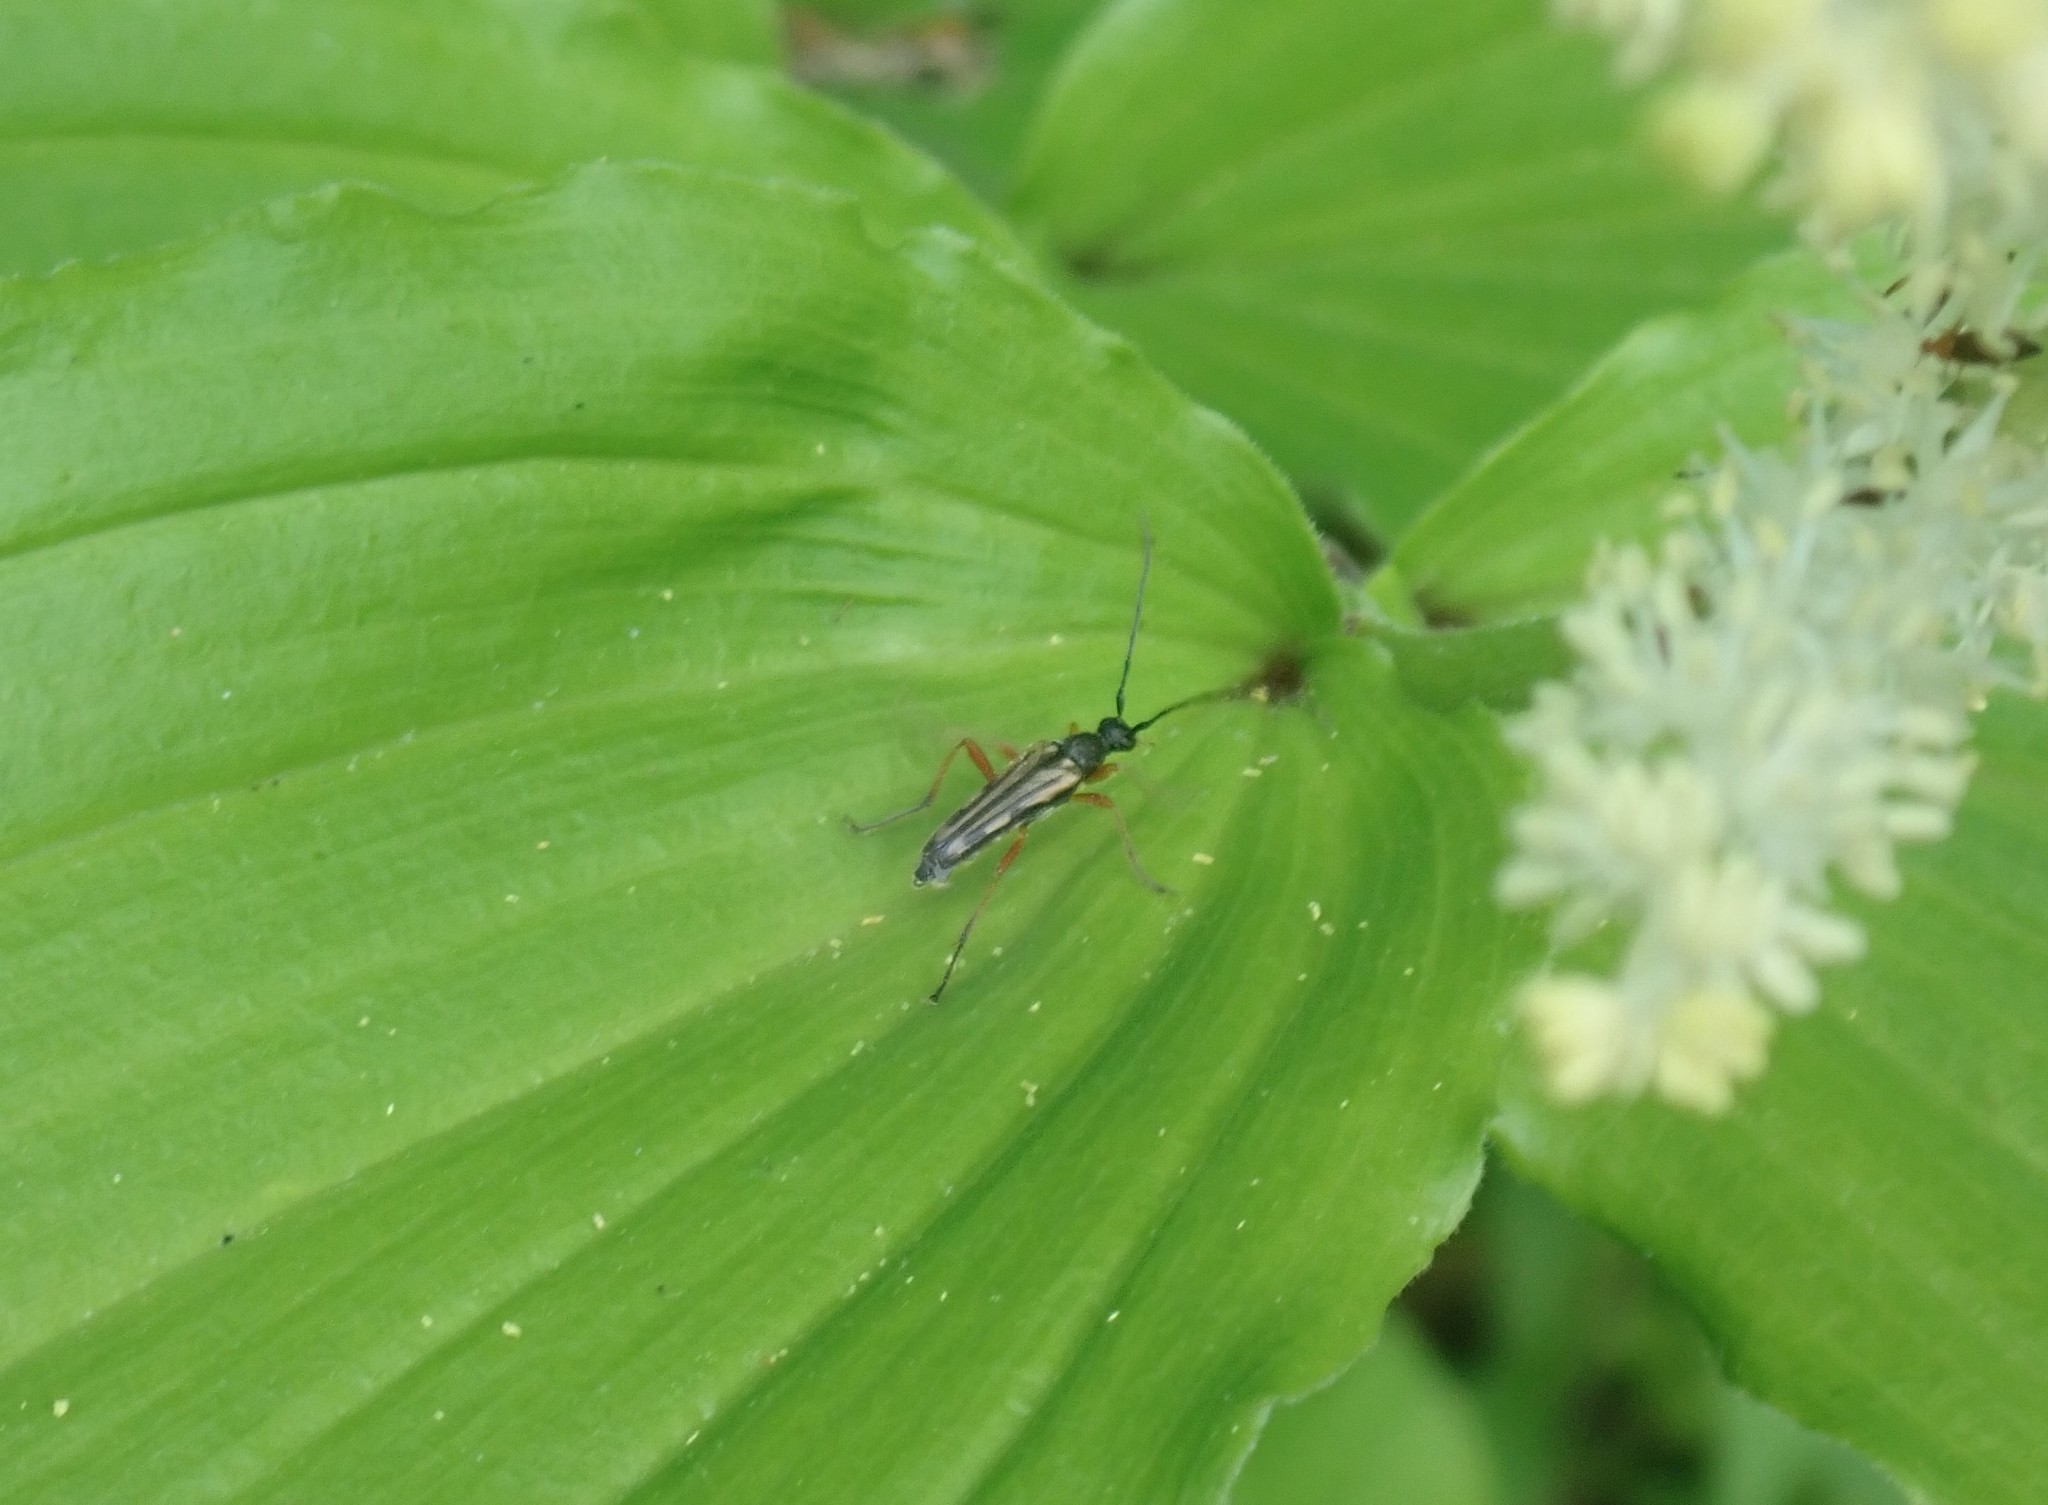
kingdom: Animalia
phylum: Arthropoda
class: Insecta
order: Coleoptera
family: Cerambycidae
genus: Analeptura
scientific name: Analeptura lineola
